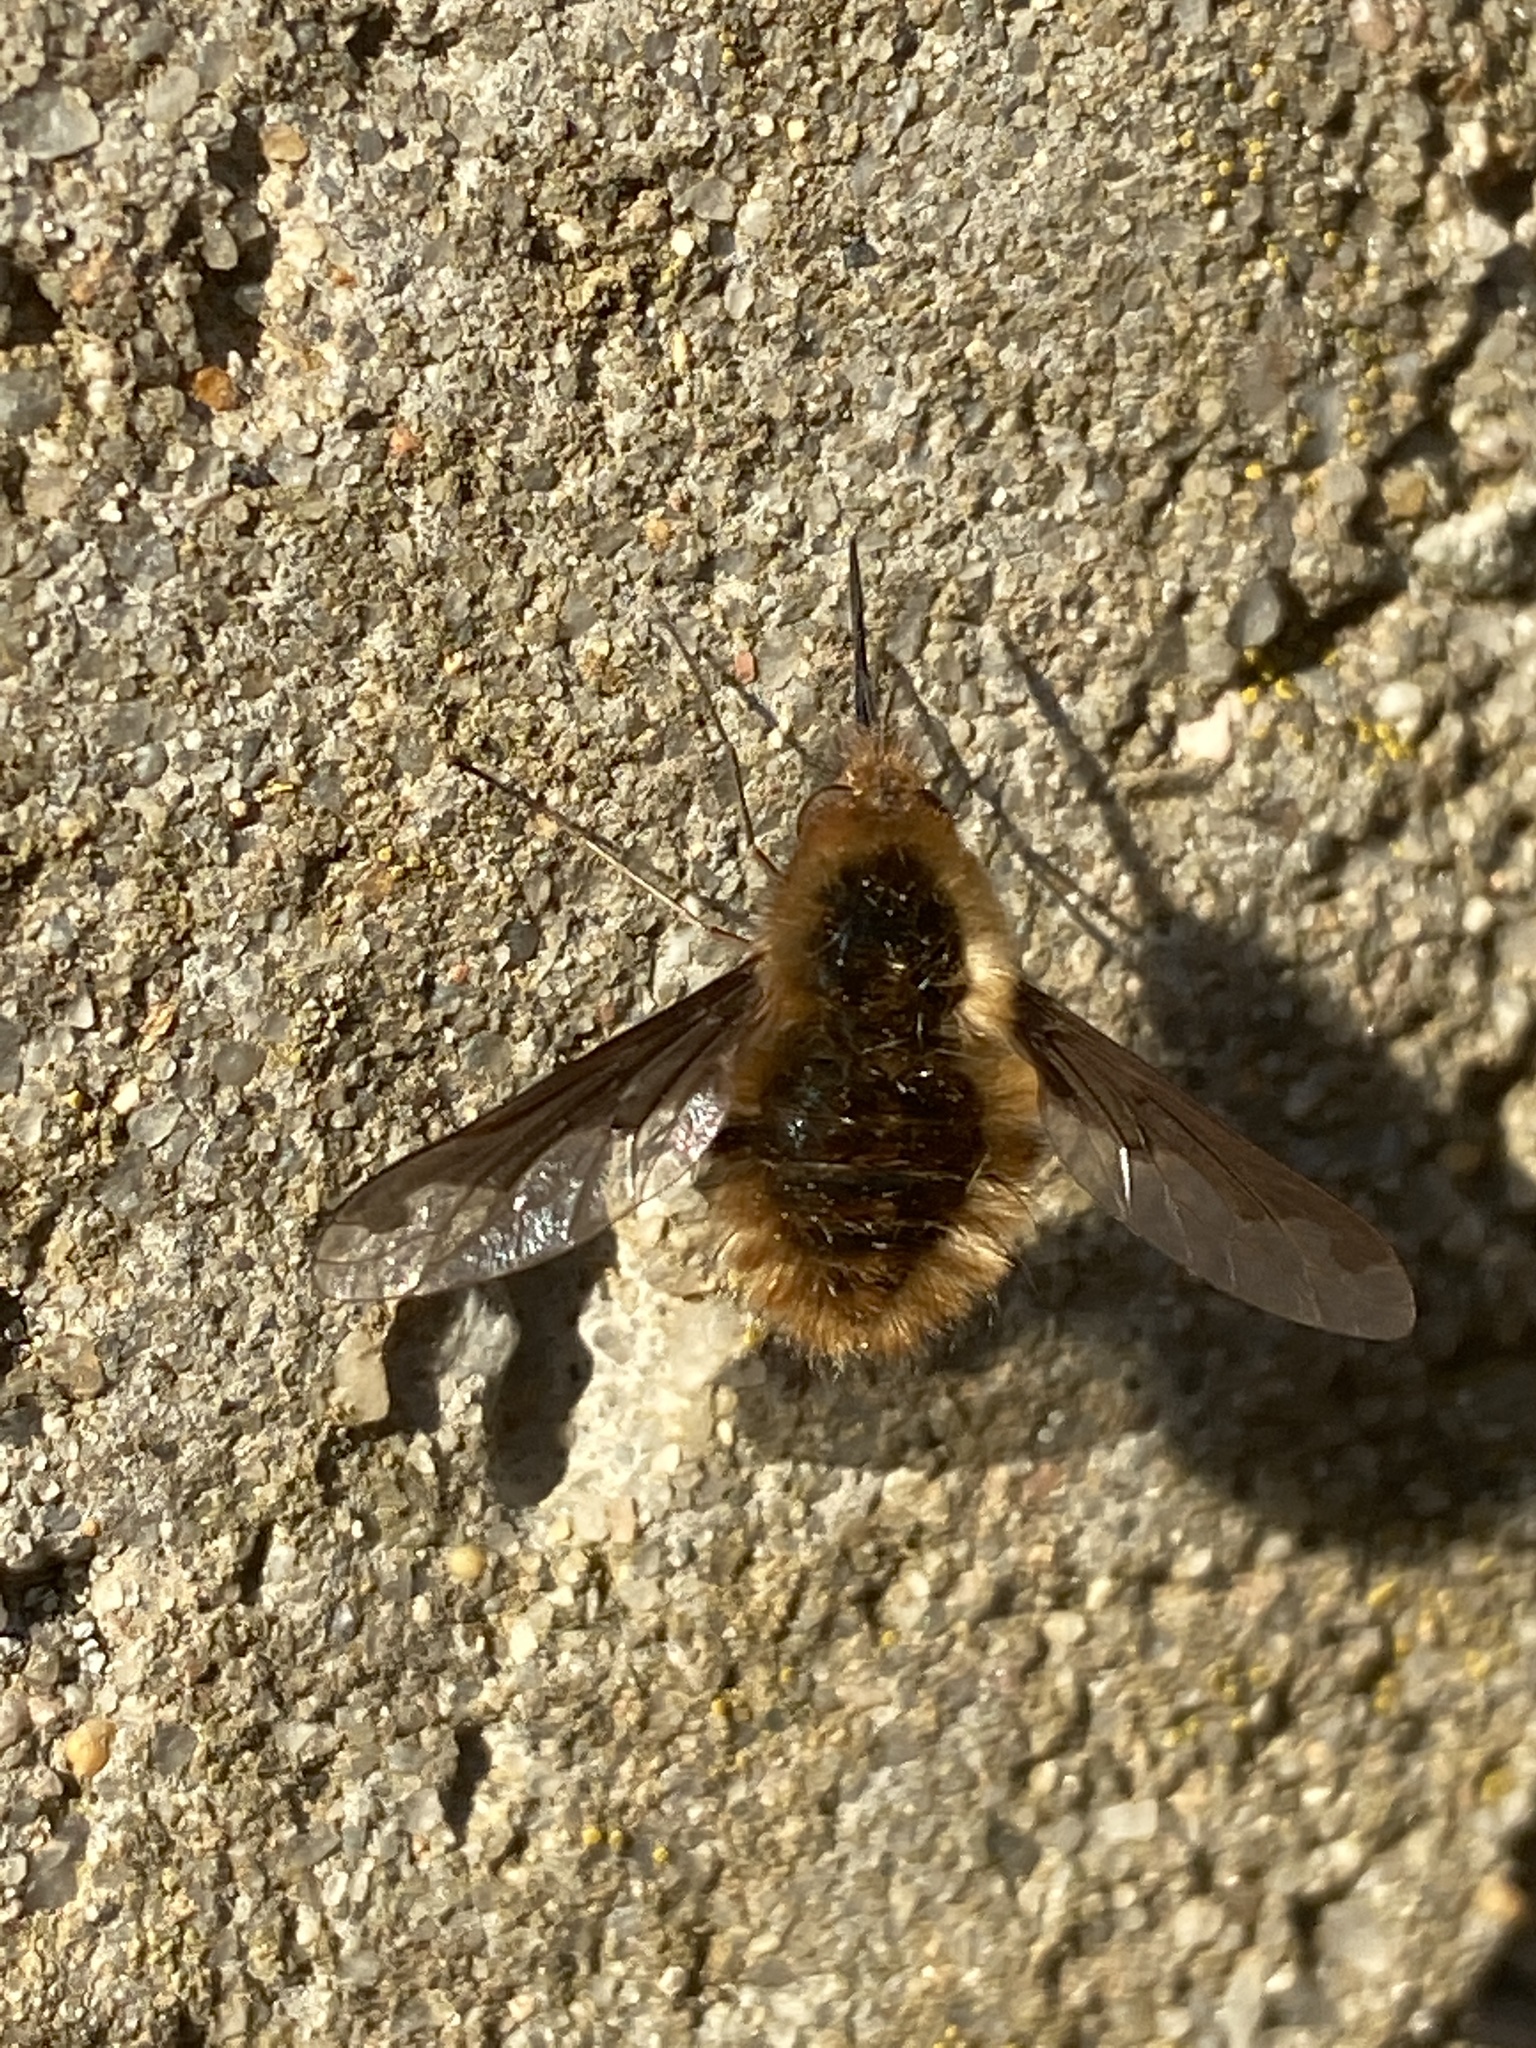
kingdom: Animalia
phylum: Arthropoda
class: Insecta
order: Diptera
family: Bombyliidae
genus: Bombylius
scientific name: Bombylius major
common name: Bee fly
